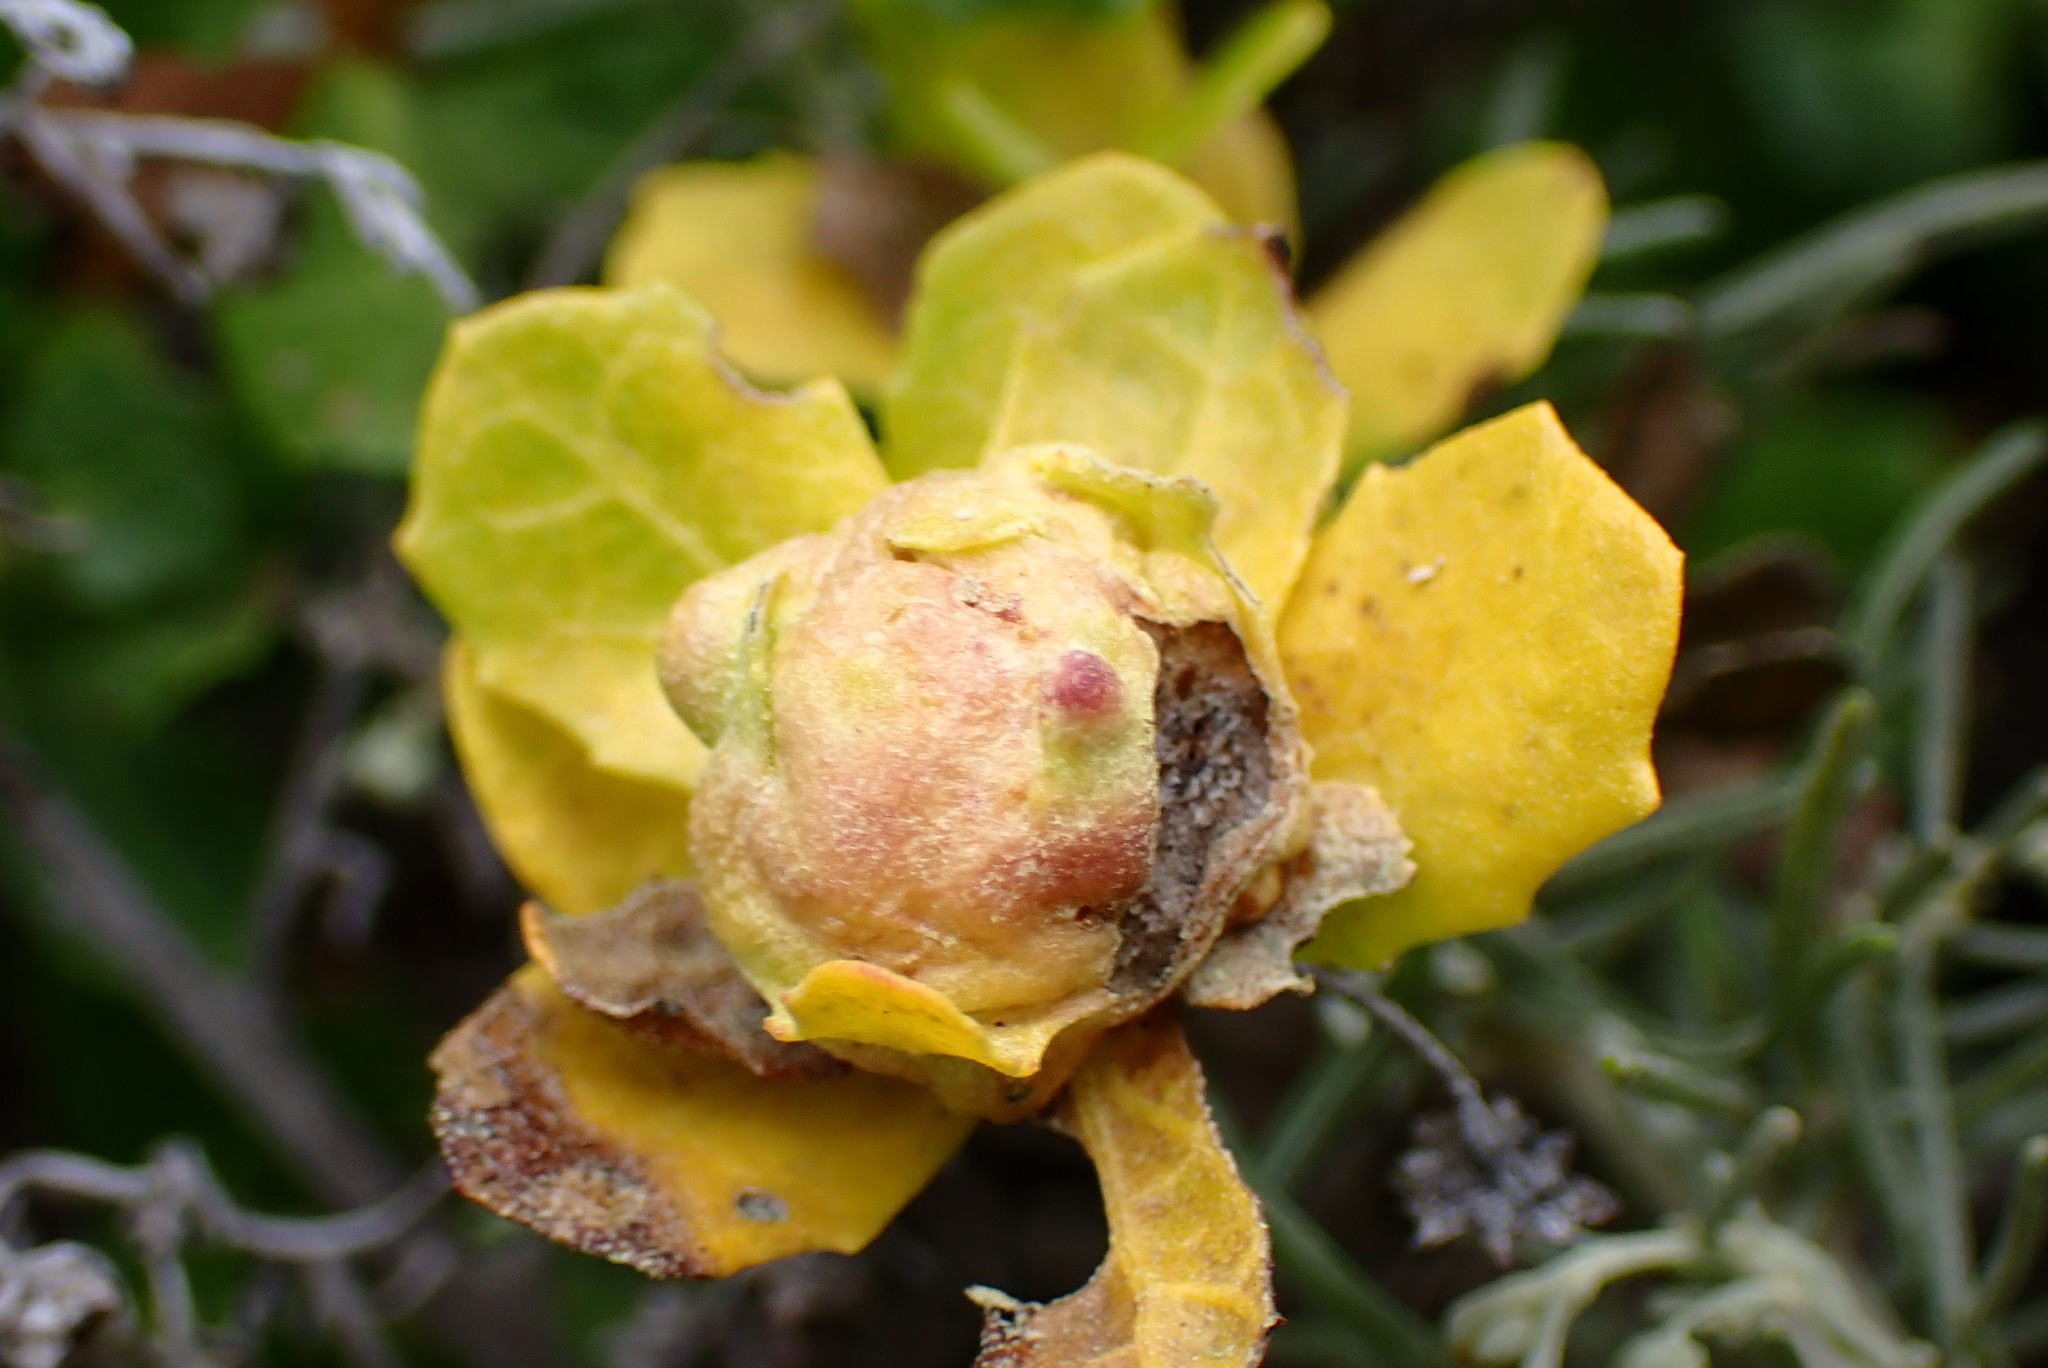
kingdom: Animalia
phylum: Arthropoda
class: Insecta
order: Diptera
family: Cecidomyiidae
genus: Rhopalomyia
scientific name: Rhopalomyia californica
